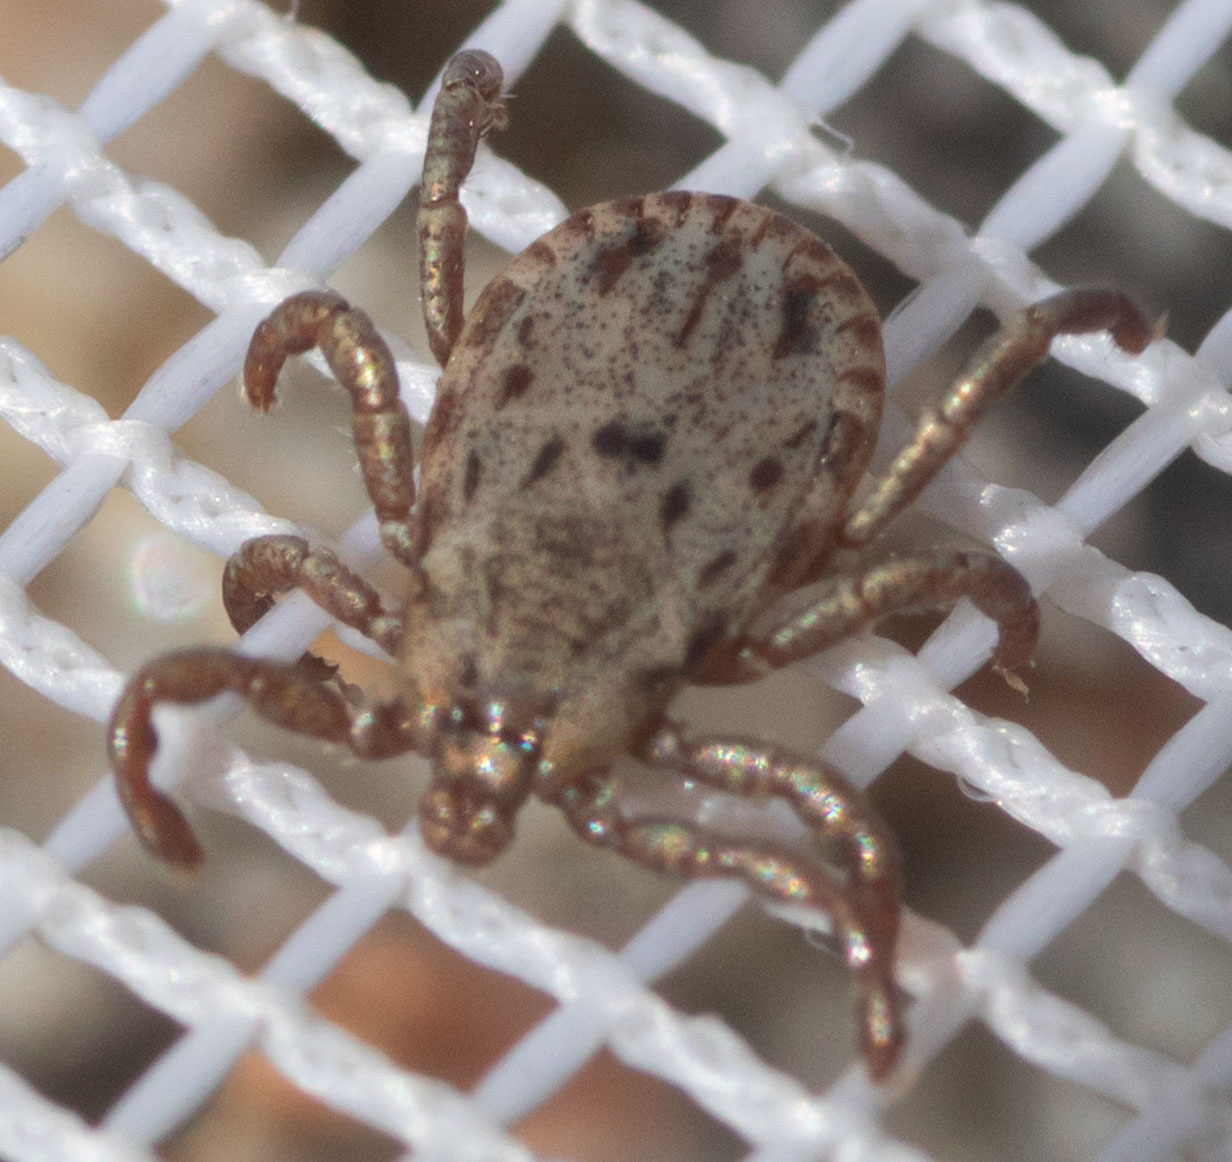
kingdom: Animalia
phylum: Arthropoda
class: Arachnida
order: Ixodida
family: Ixodidae
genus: Dermacentor
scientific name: Dermacentor occidentalis
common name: Net tick
